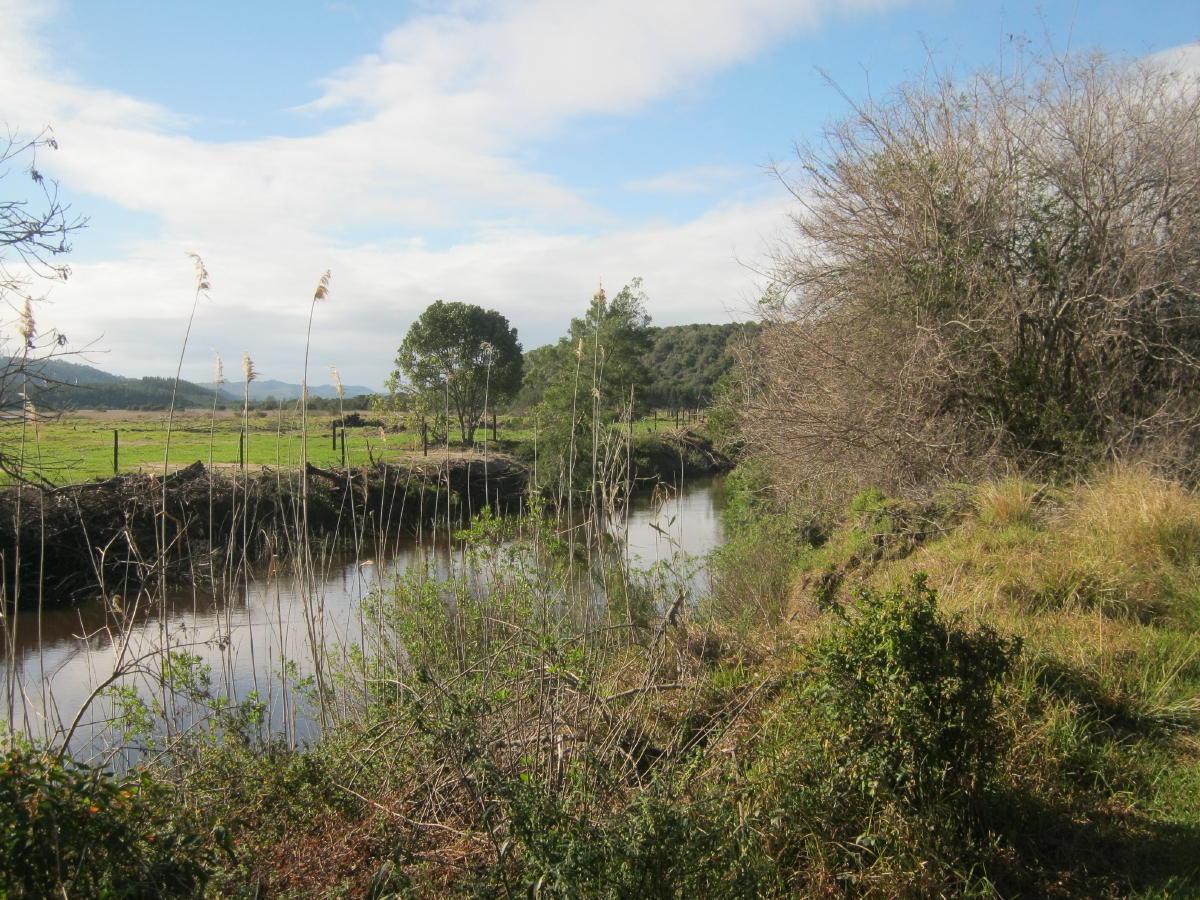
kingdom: Plantae
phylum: Tracheophyta
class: Liliopsida
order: Poales
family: Poaceae
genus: Phragmites
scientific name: Phragmites australis
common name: Common reed
